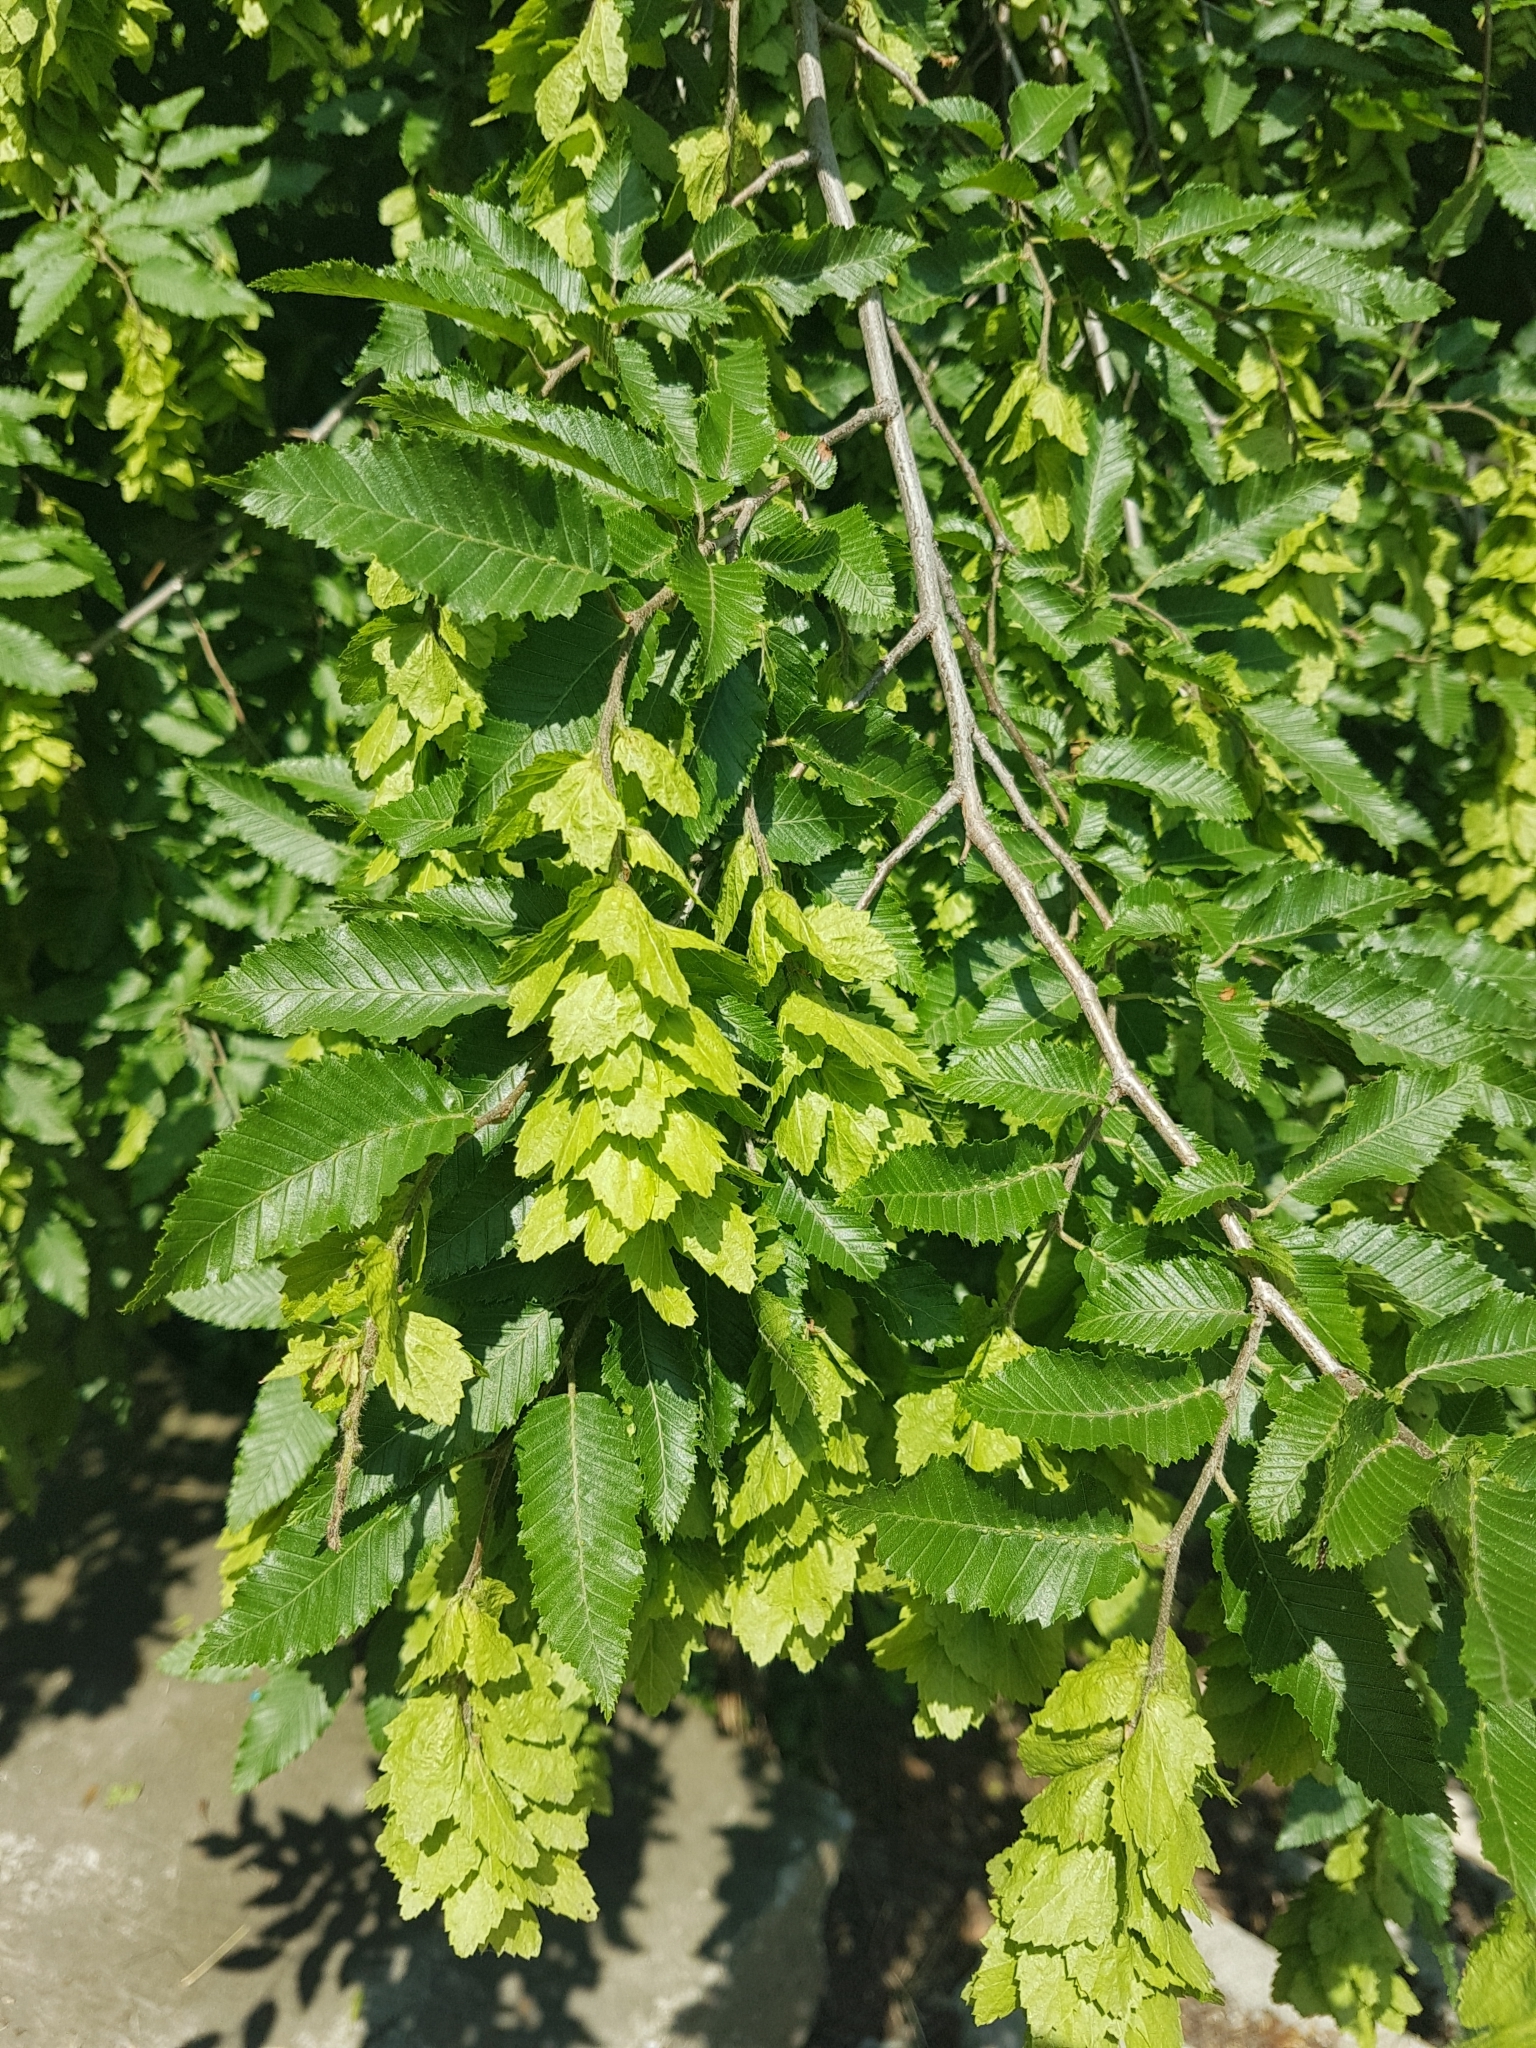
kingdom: Plantae
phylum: Tracheophyta
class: Magnoliopsida
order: Fagales
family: Betulaceae
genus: Carpinus
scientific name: Carpinus orientalis
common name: Eastern hornbeam
